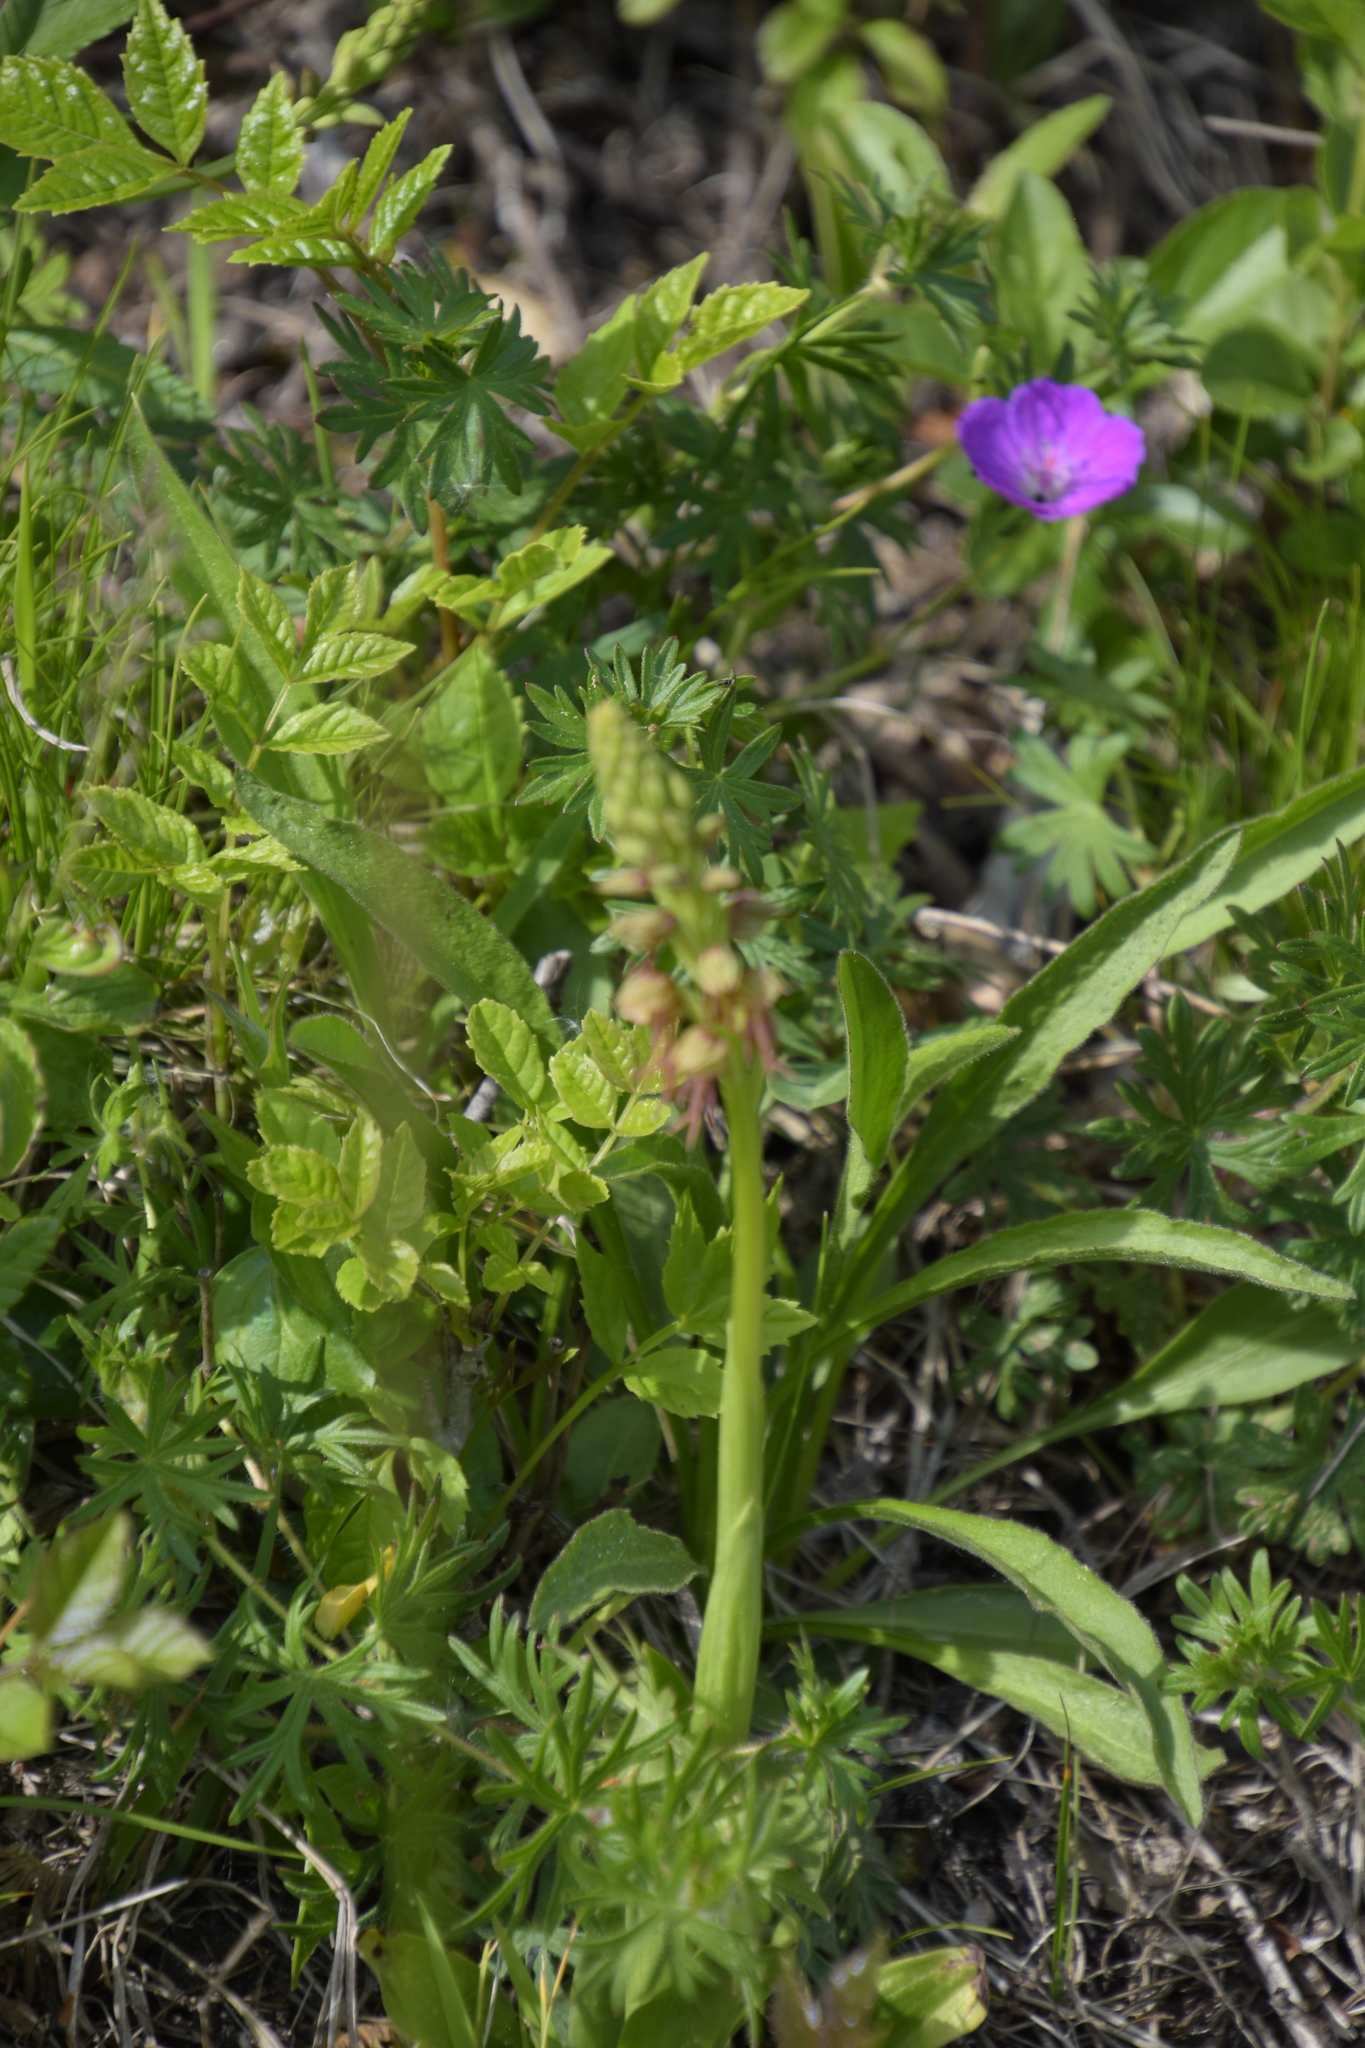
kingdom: Plantae
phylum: Tracheophyta
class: Liliopsida
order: Asparagales
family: Orchidaceae
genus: Orchis
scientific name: Orchis anthropophora
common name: Man orchid
